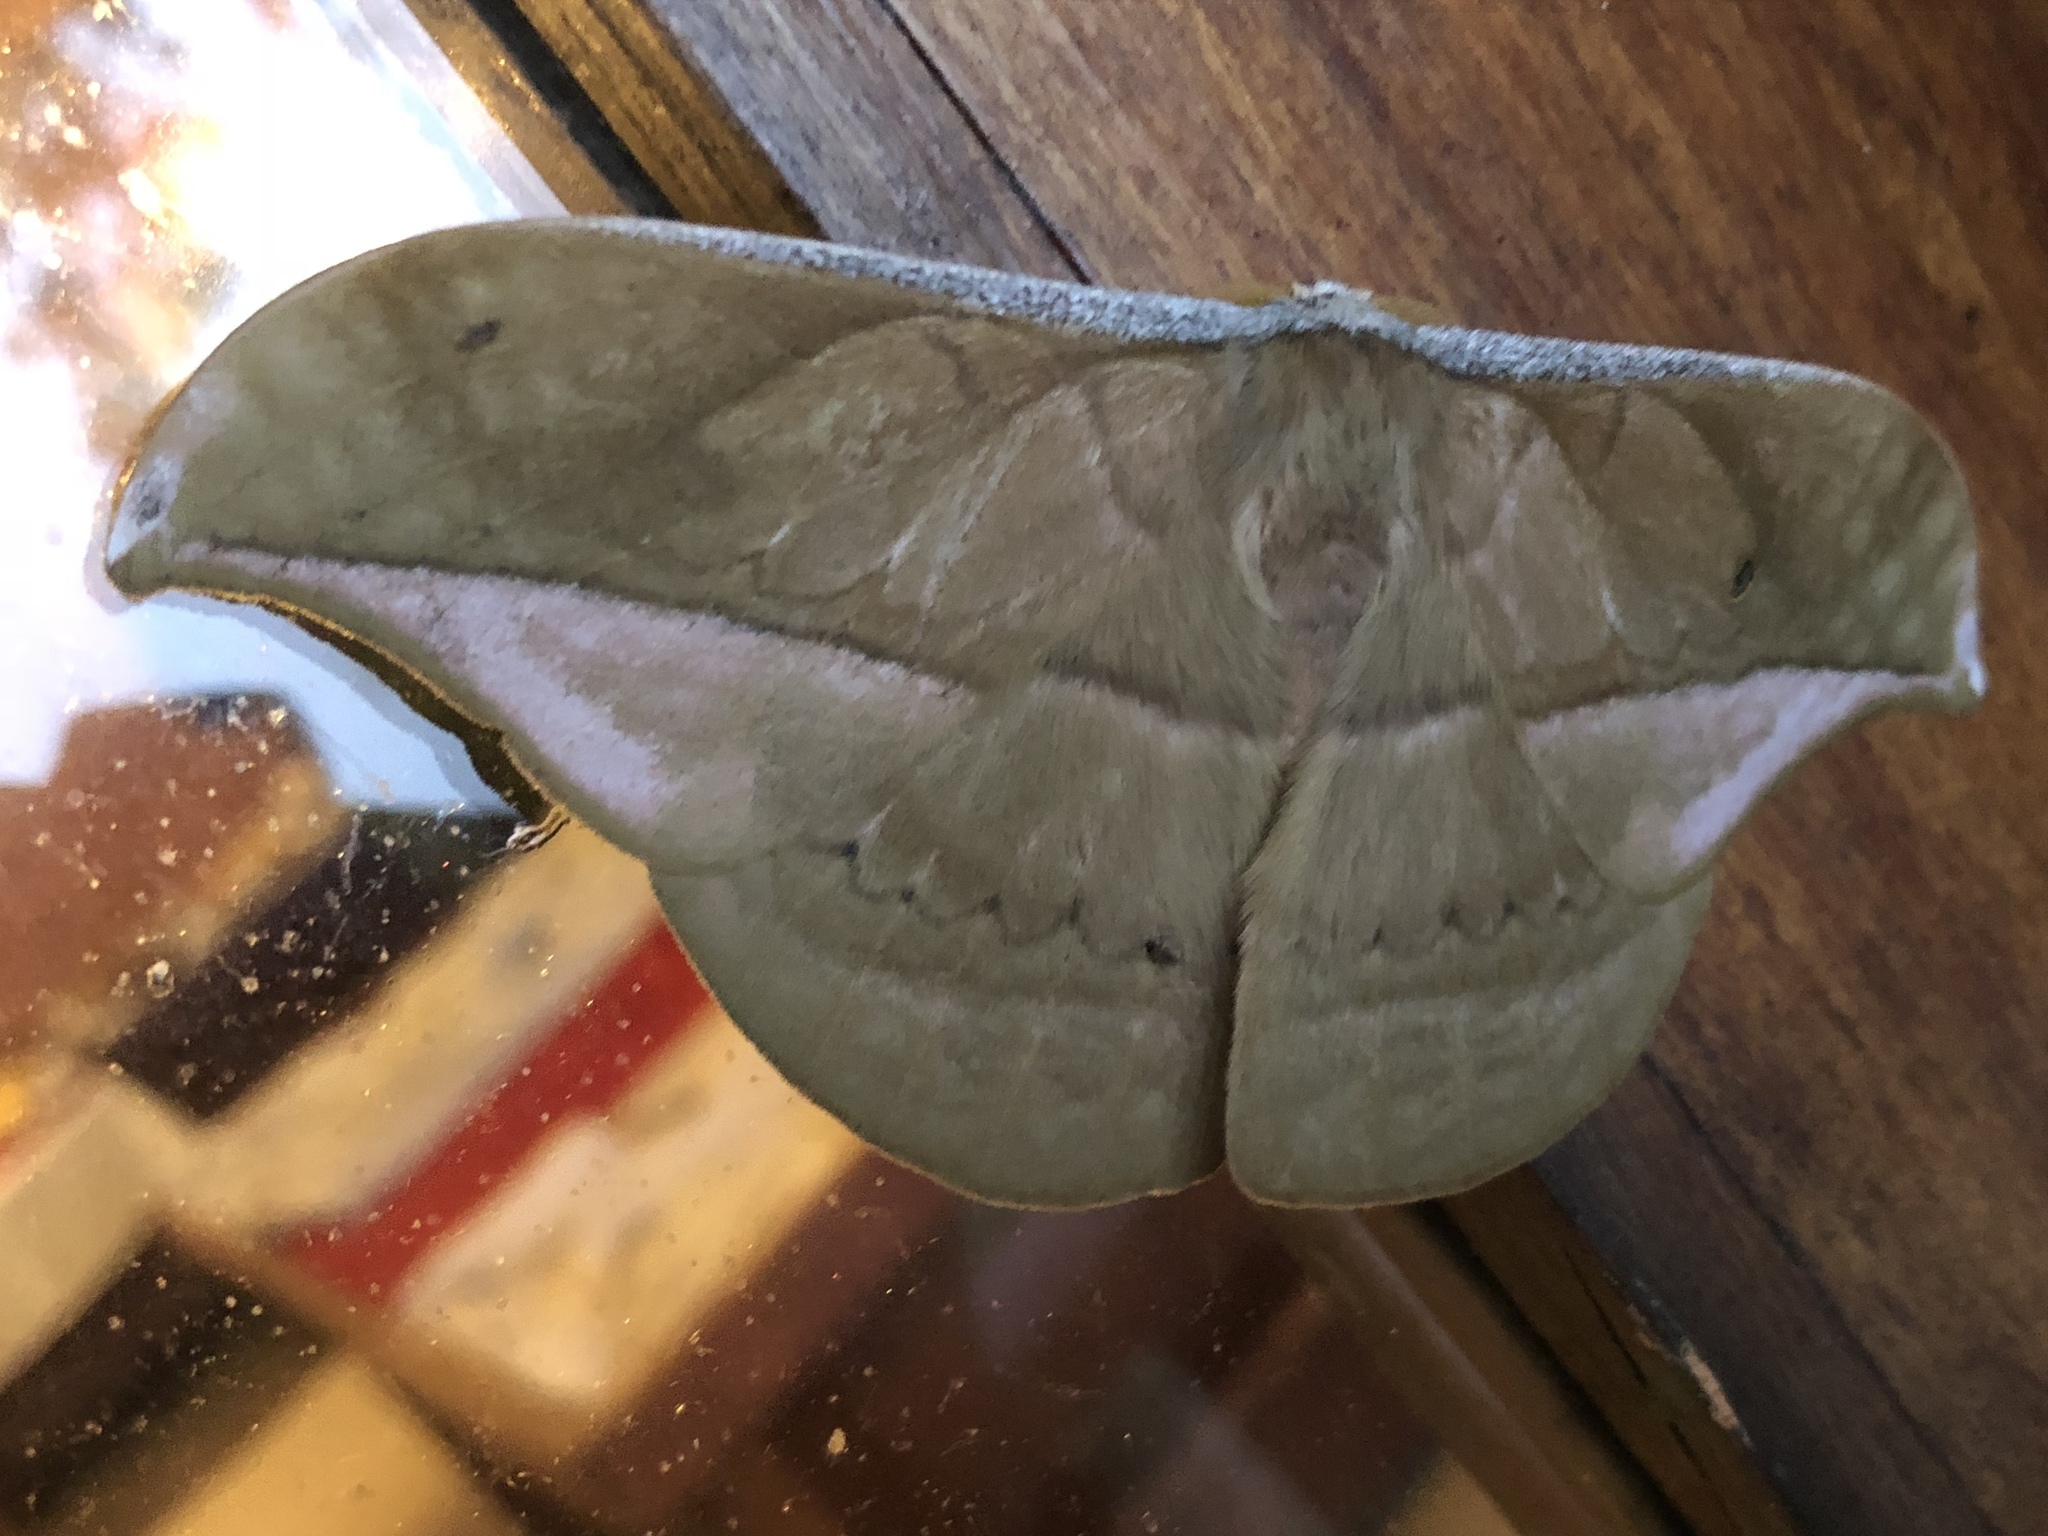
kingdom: Animalia
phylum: Arthropoda
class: Insecta
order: Lepidoptera
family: Saturniidae
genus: Copaxa
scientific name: Copaxa decrescens
